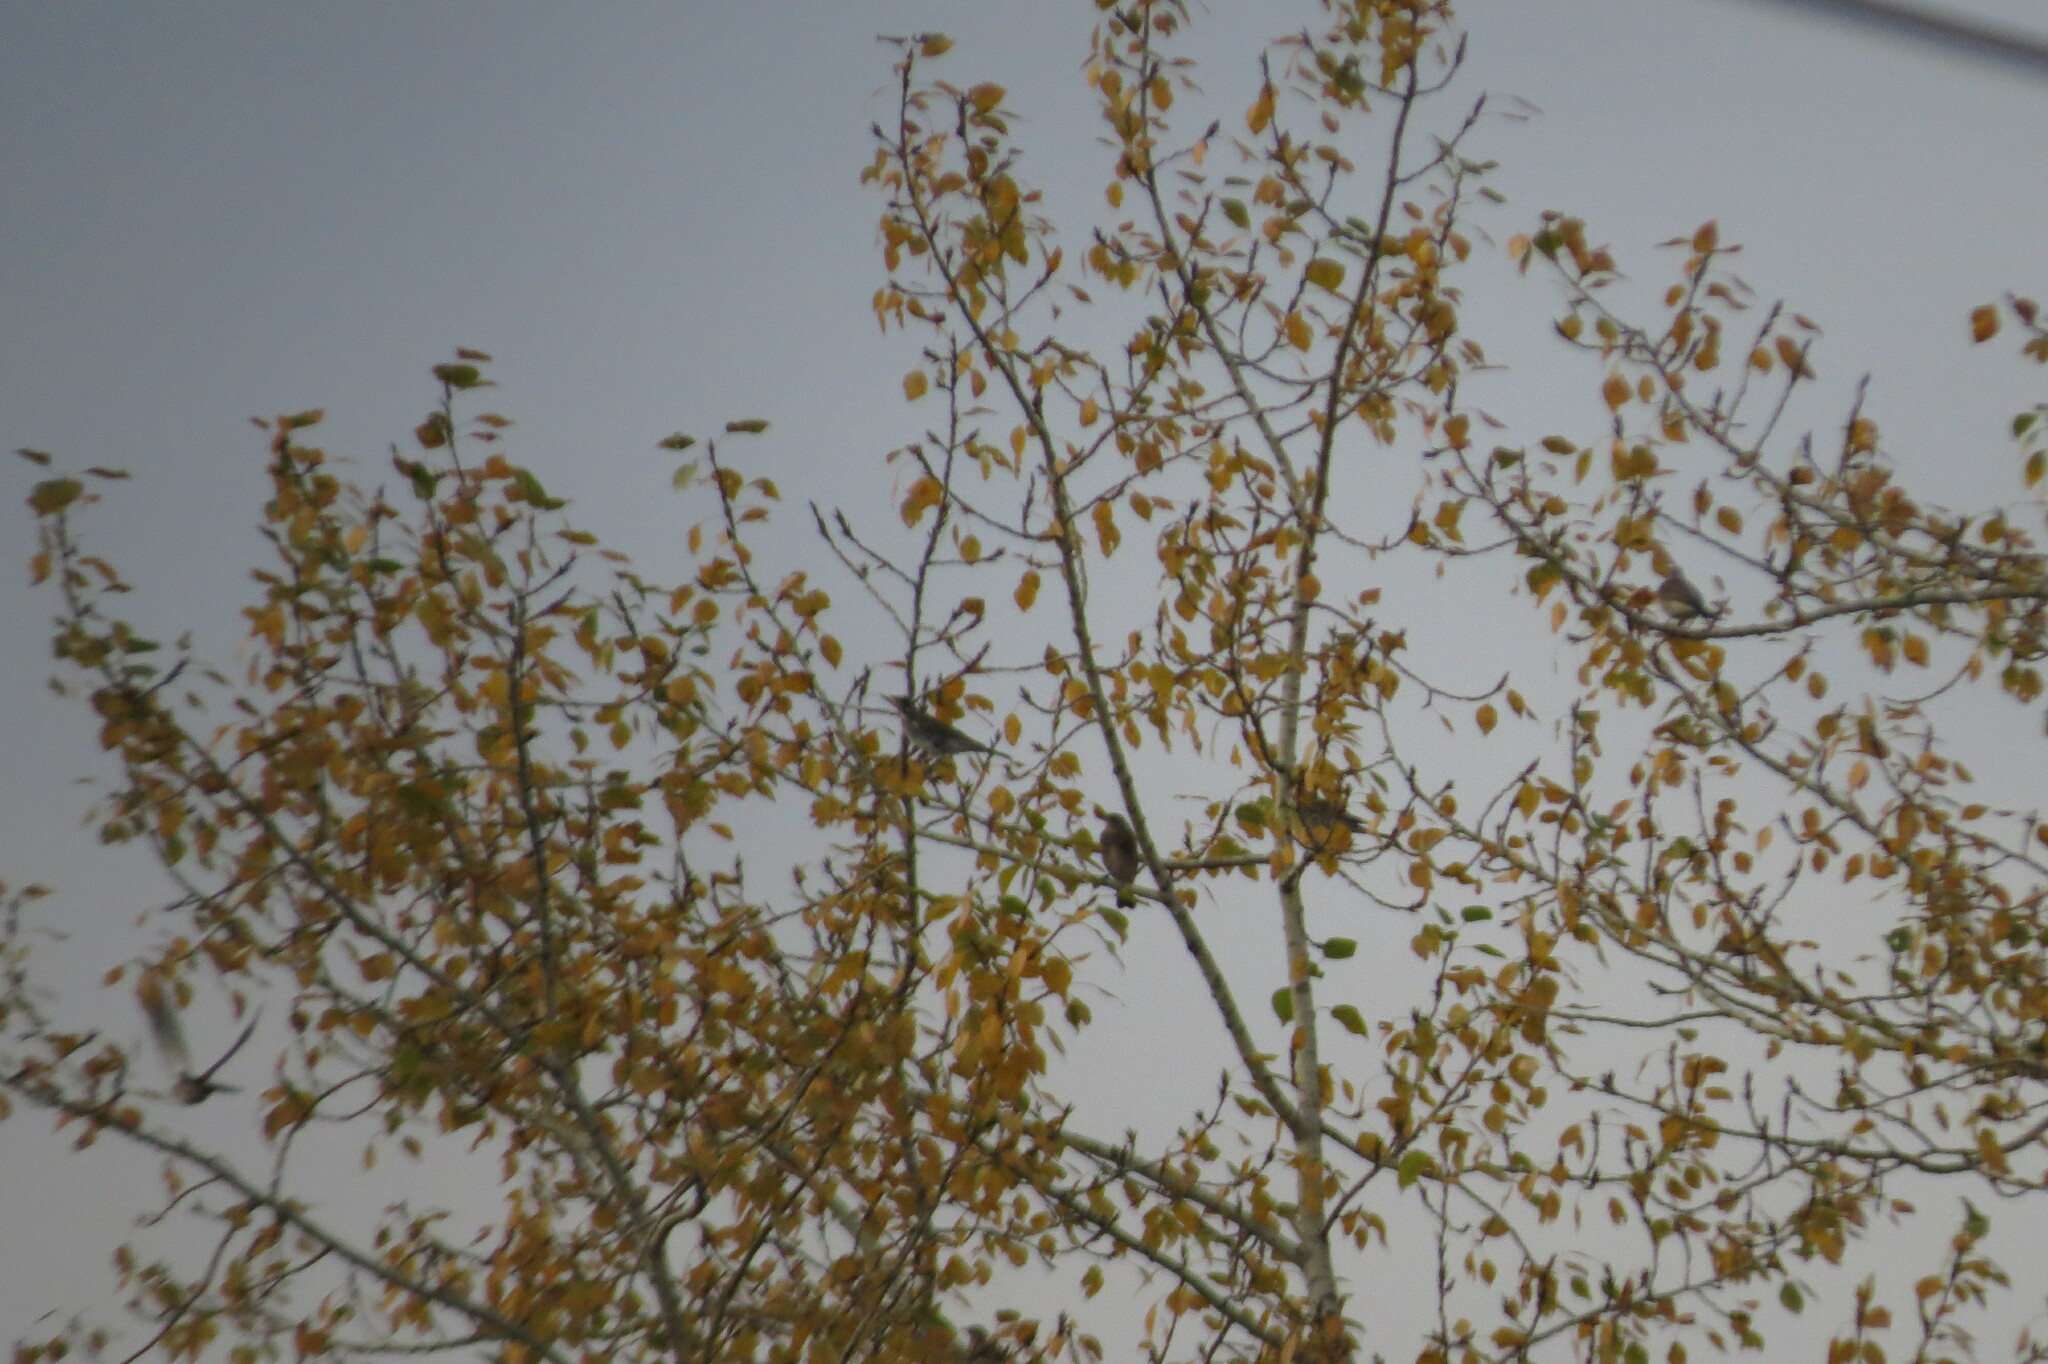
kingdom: Animalia
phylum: Chordata
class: Aves
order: Passeriformes
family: Turdidae
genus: Turdus
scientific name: Turdus pilaris
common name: Fieldfare
